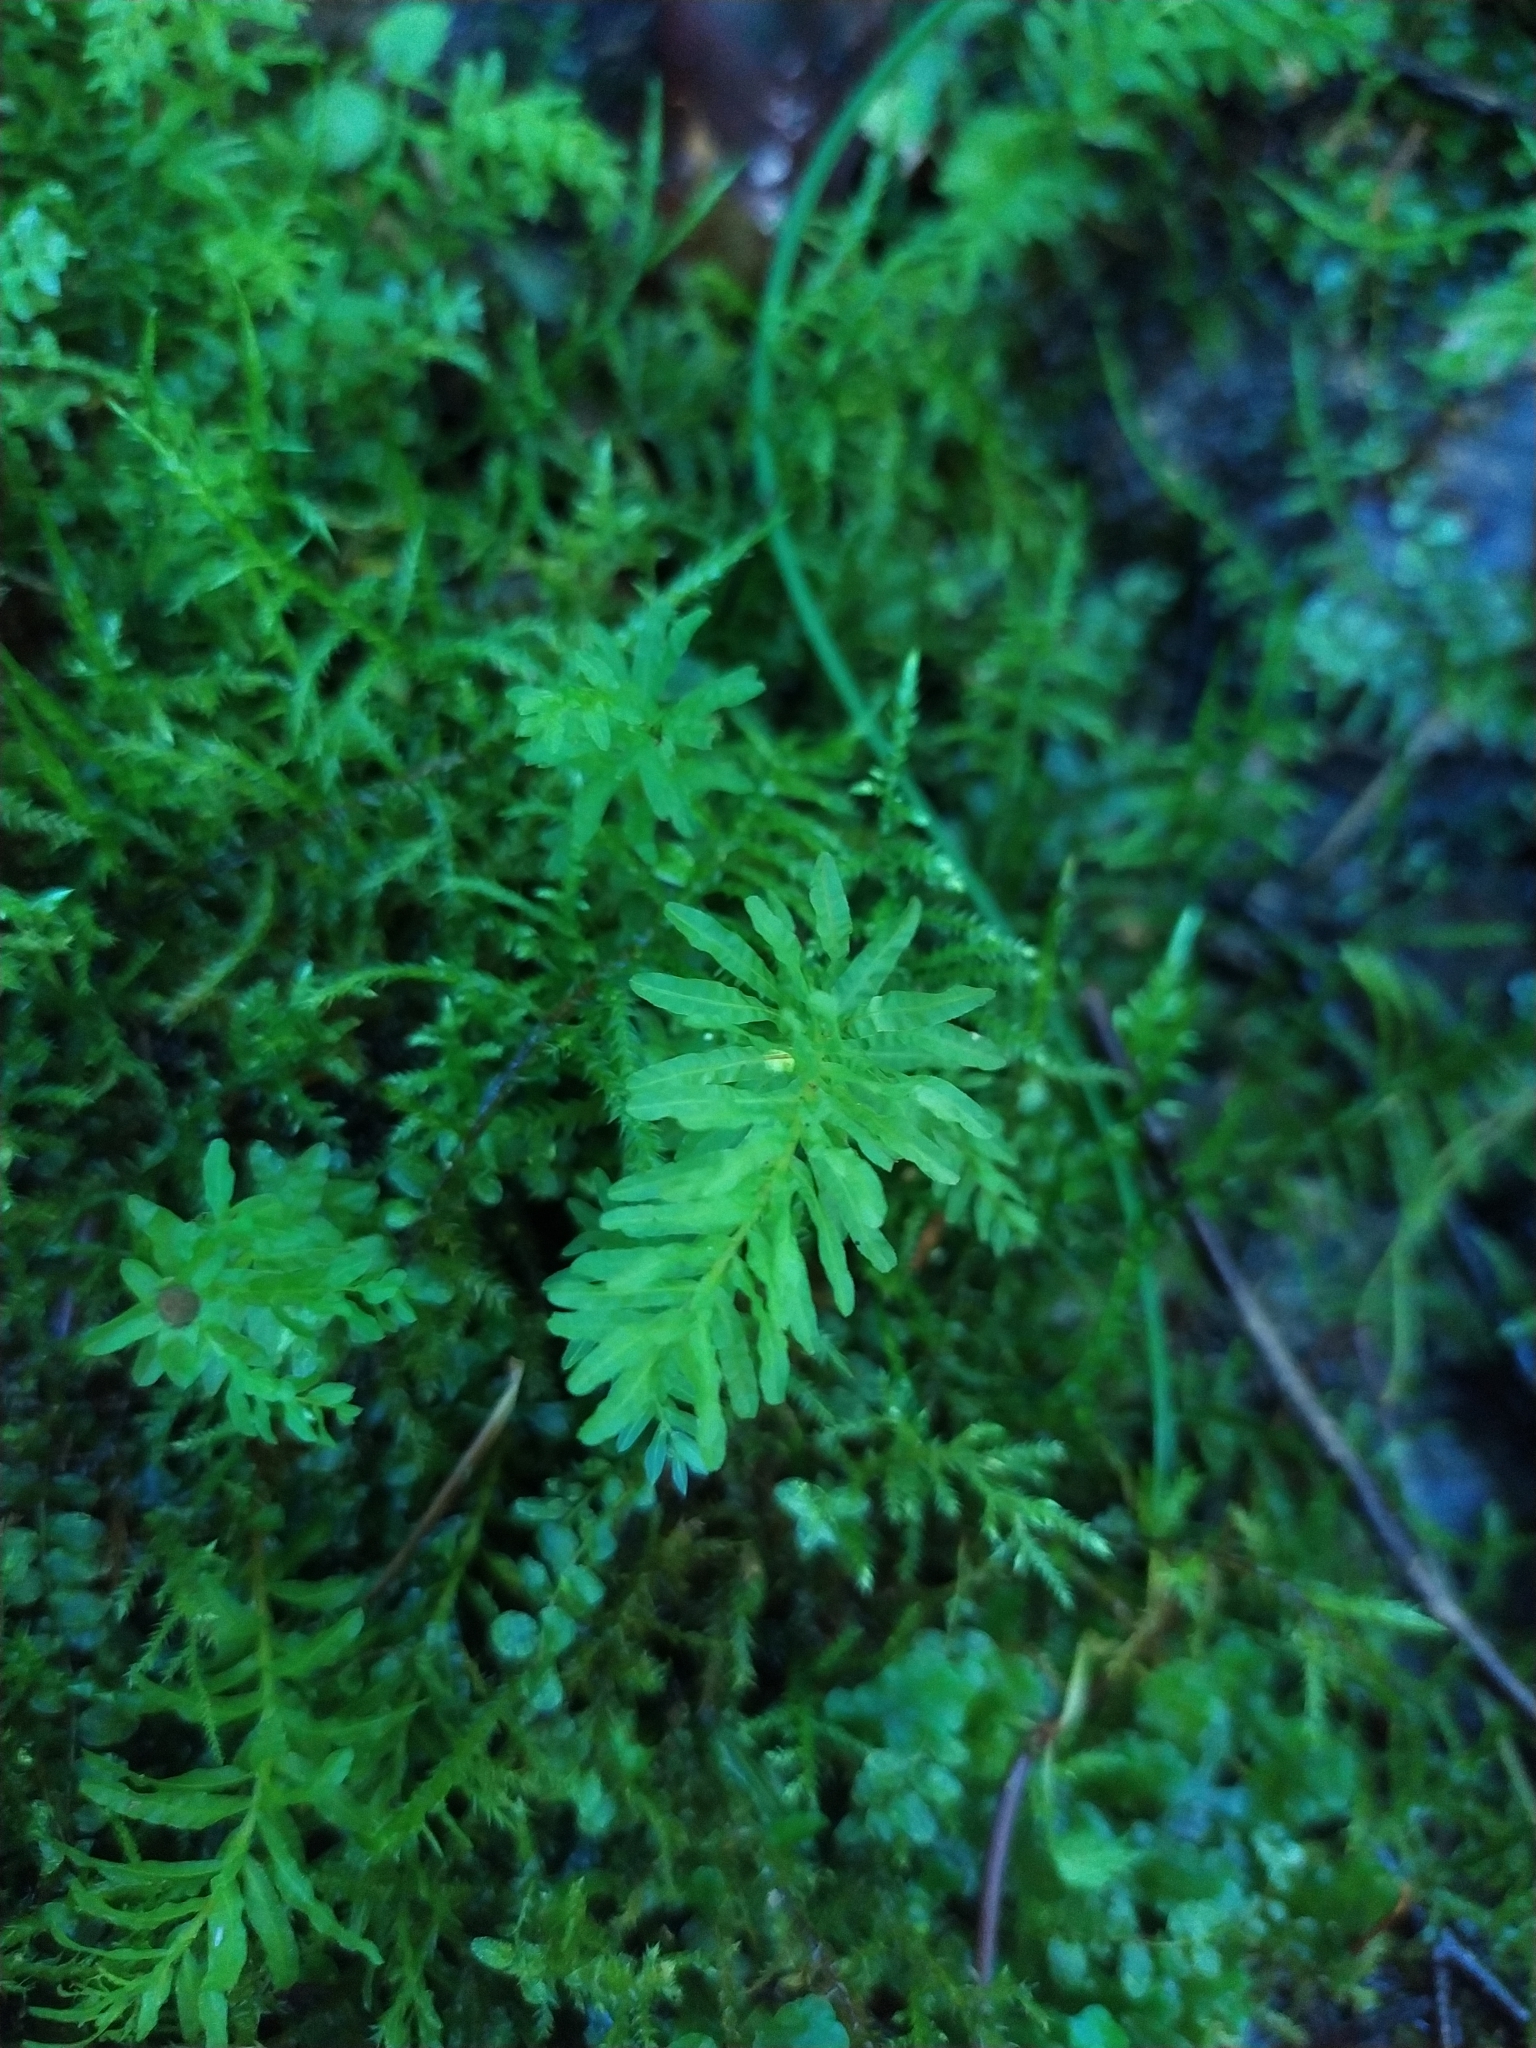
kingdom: Plantae
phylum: Bryophyta
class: Bryopsida
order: Bryales
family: Mniaceae
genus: Plagiomnium
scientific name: Plagiomnium undulatum
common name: Hart's-tongue thyme-moss
